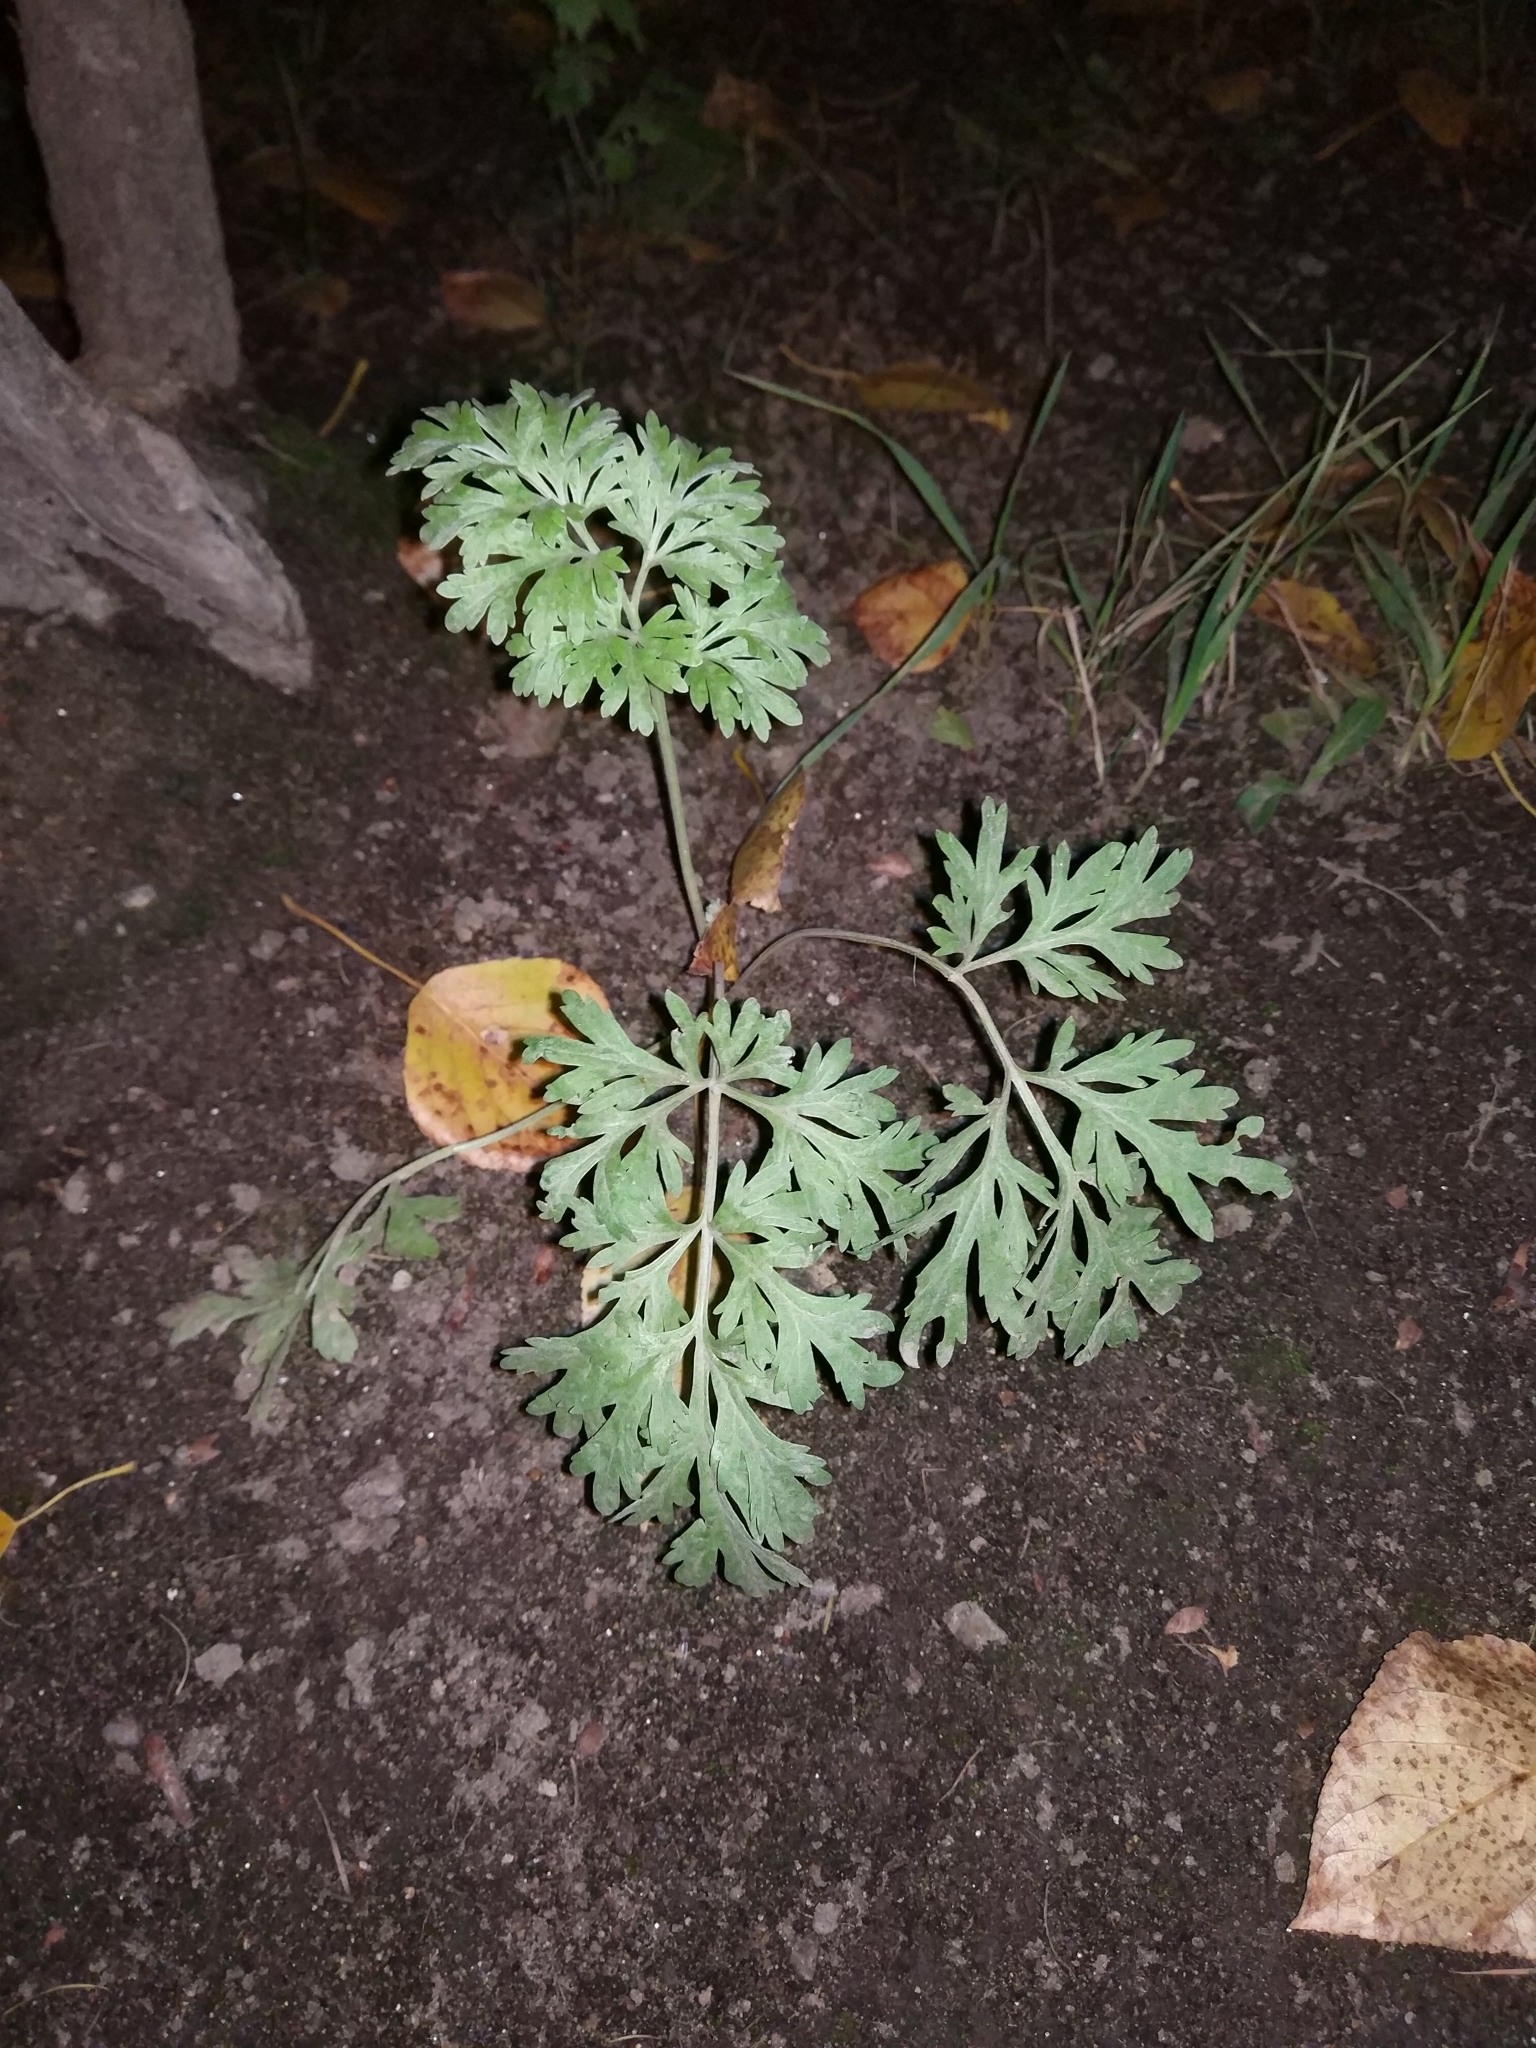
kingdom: Plantae
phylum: Tracheophyta
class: Magnoliopsida
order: Asterales
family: Asteraceae
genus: Artemisia
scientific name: Artemisia absinthium
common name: Wormwood
